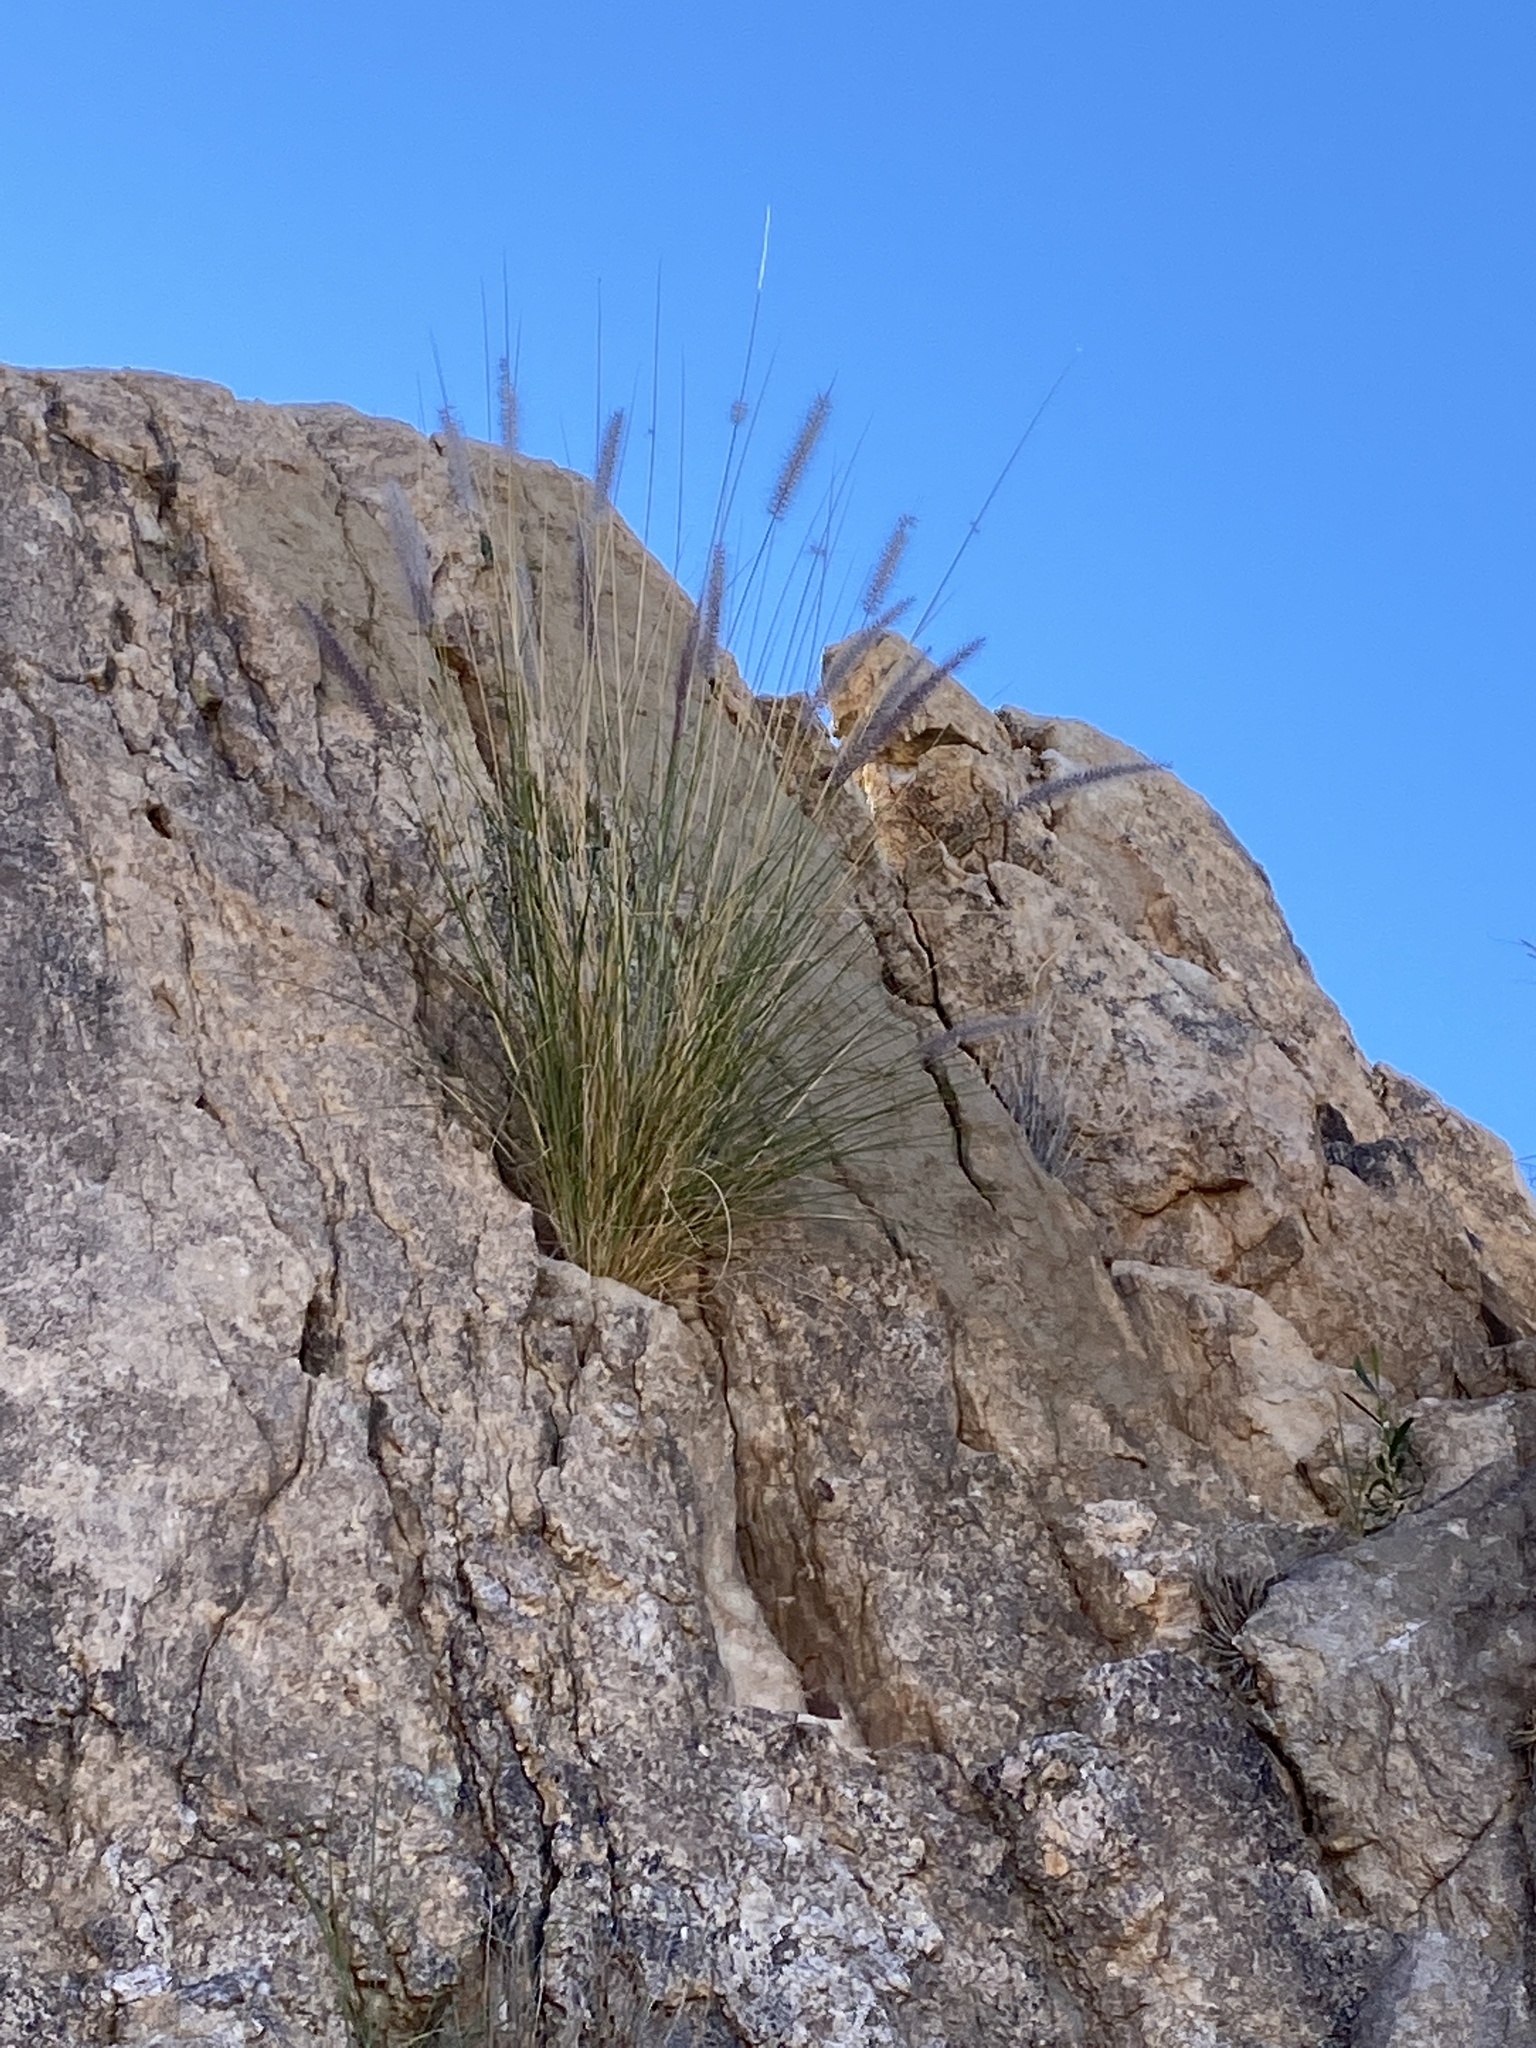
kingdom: Plantae
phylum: Tracheophyta
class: Liliopsida
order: Poales
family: Poaceae
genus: Cenchrus
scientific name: Cenchrus setaceus
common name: Crimson fountaingrass
